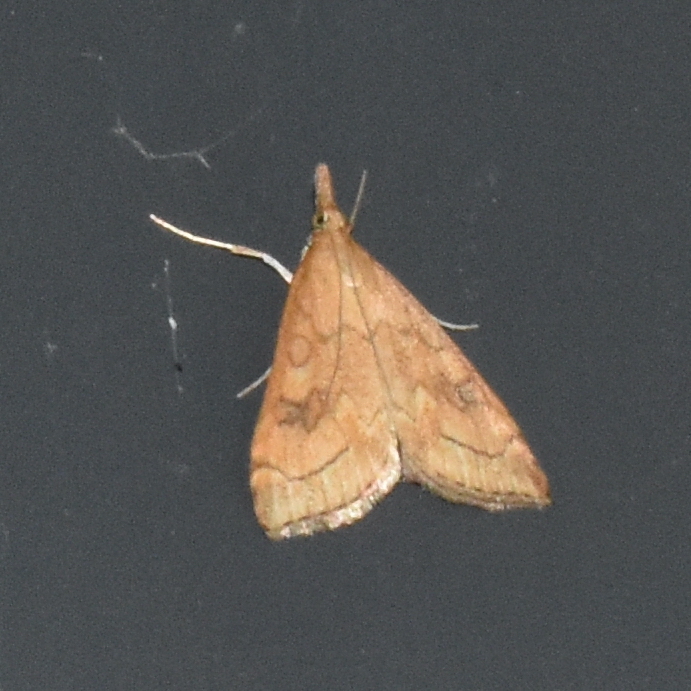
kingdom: Animalia
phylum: Arthropoda
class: Insecta
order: Lepidoptera
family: Crambidae
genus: Udea
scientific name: Udea profundalis
